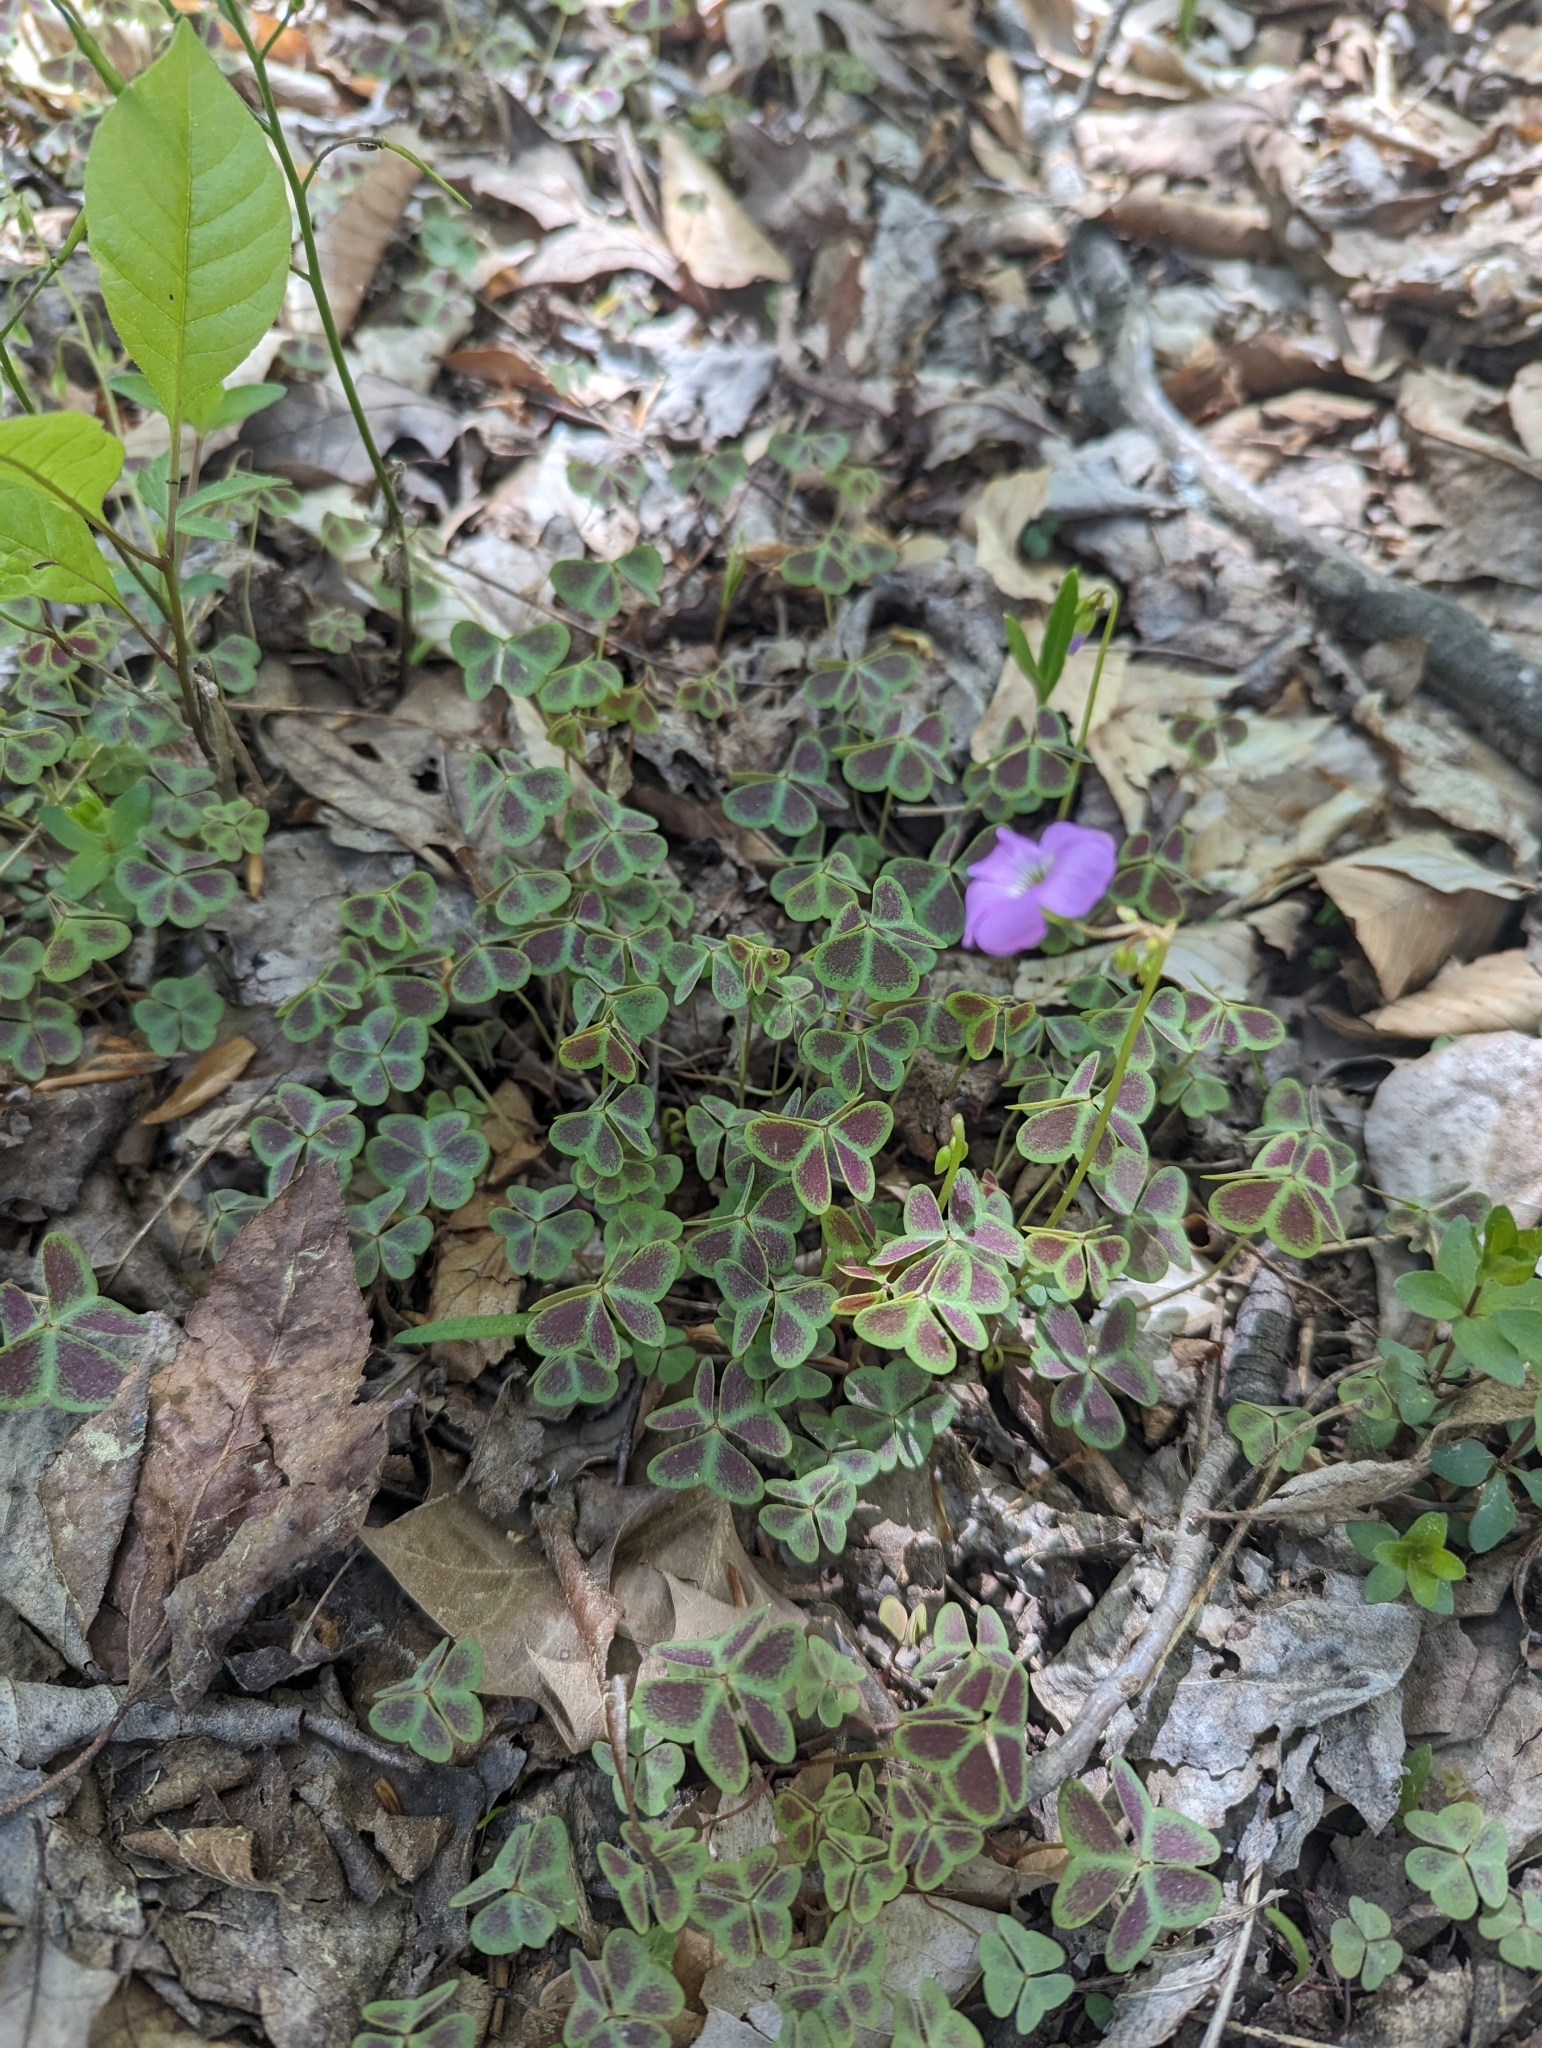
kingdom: Plantae
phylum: Tracheophyta
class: Magnoliopsida
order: Oxalidales
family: Oxalidaceae
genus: Oxalis
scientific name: Oxalis violacea
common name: Violet wood-sorrel
